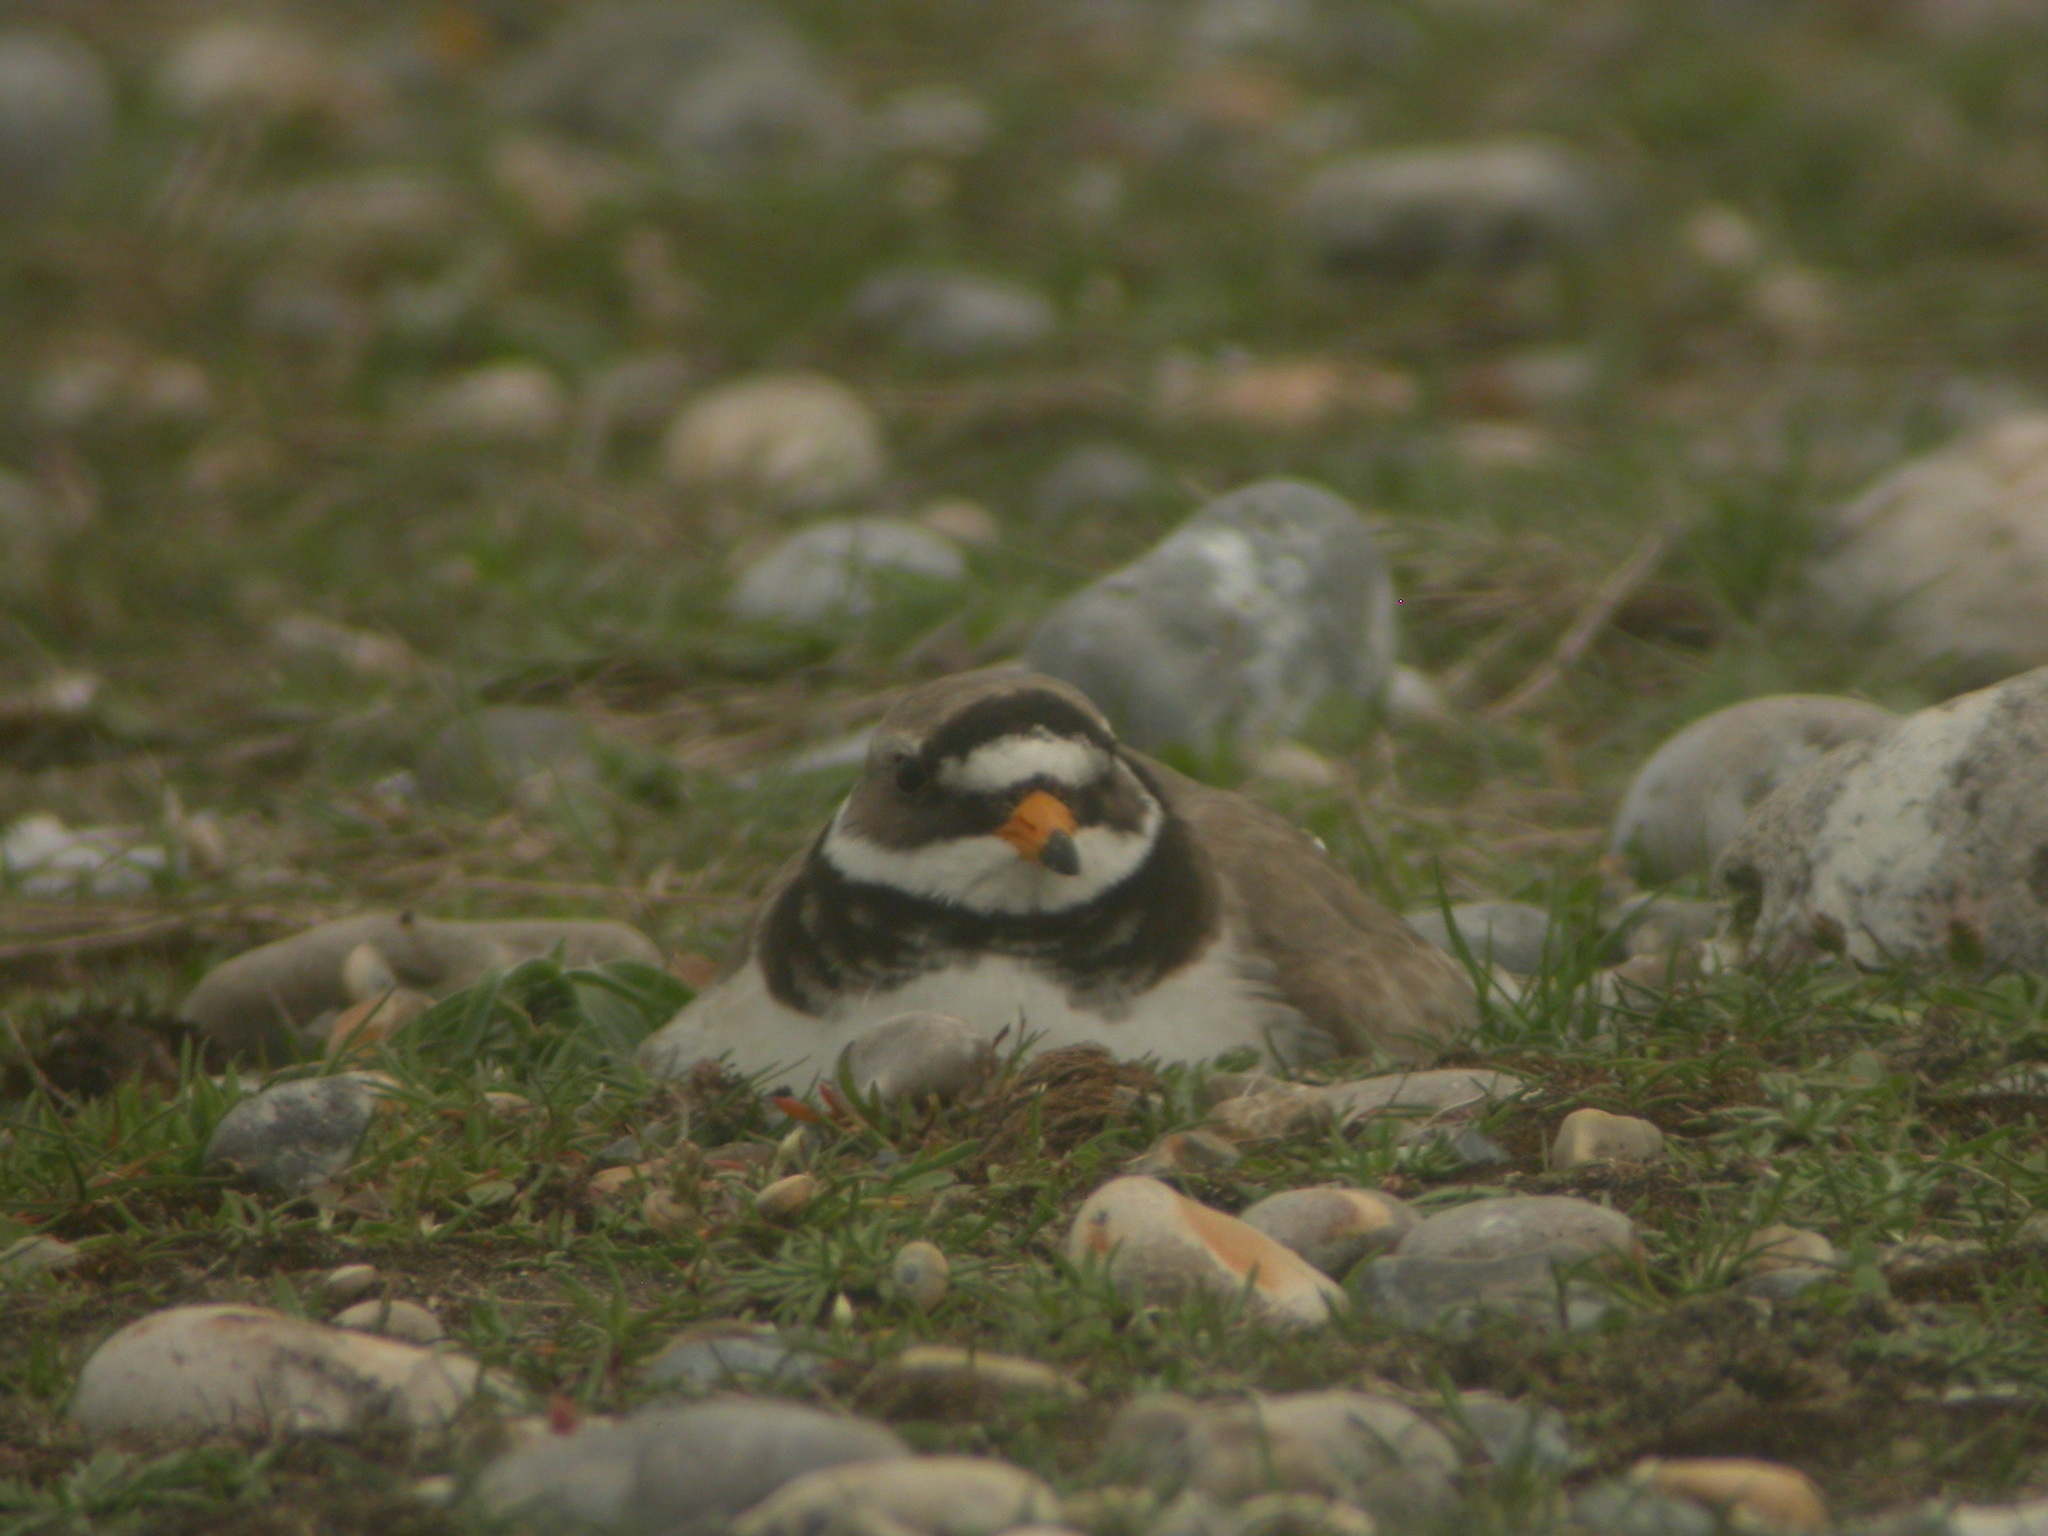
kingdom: Animalia
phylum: Chordata
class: Aves
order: Charadriiformes
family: Charadriidae
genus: Charadrius
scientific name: Charadrius hiaticula
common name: Common ringed plover
